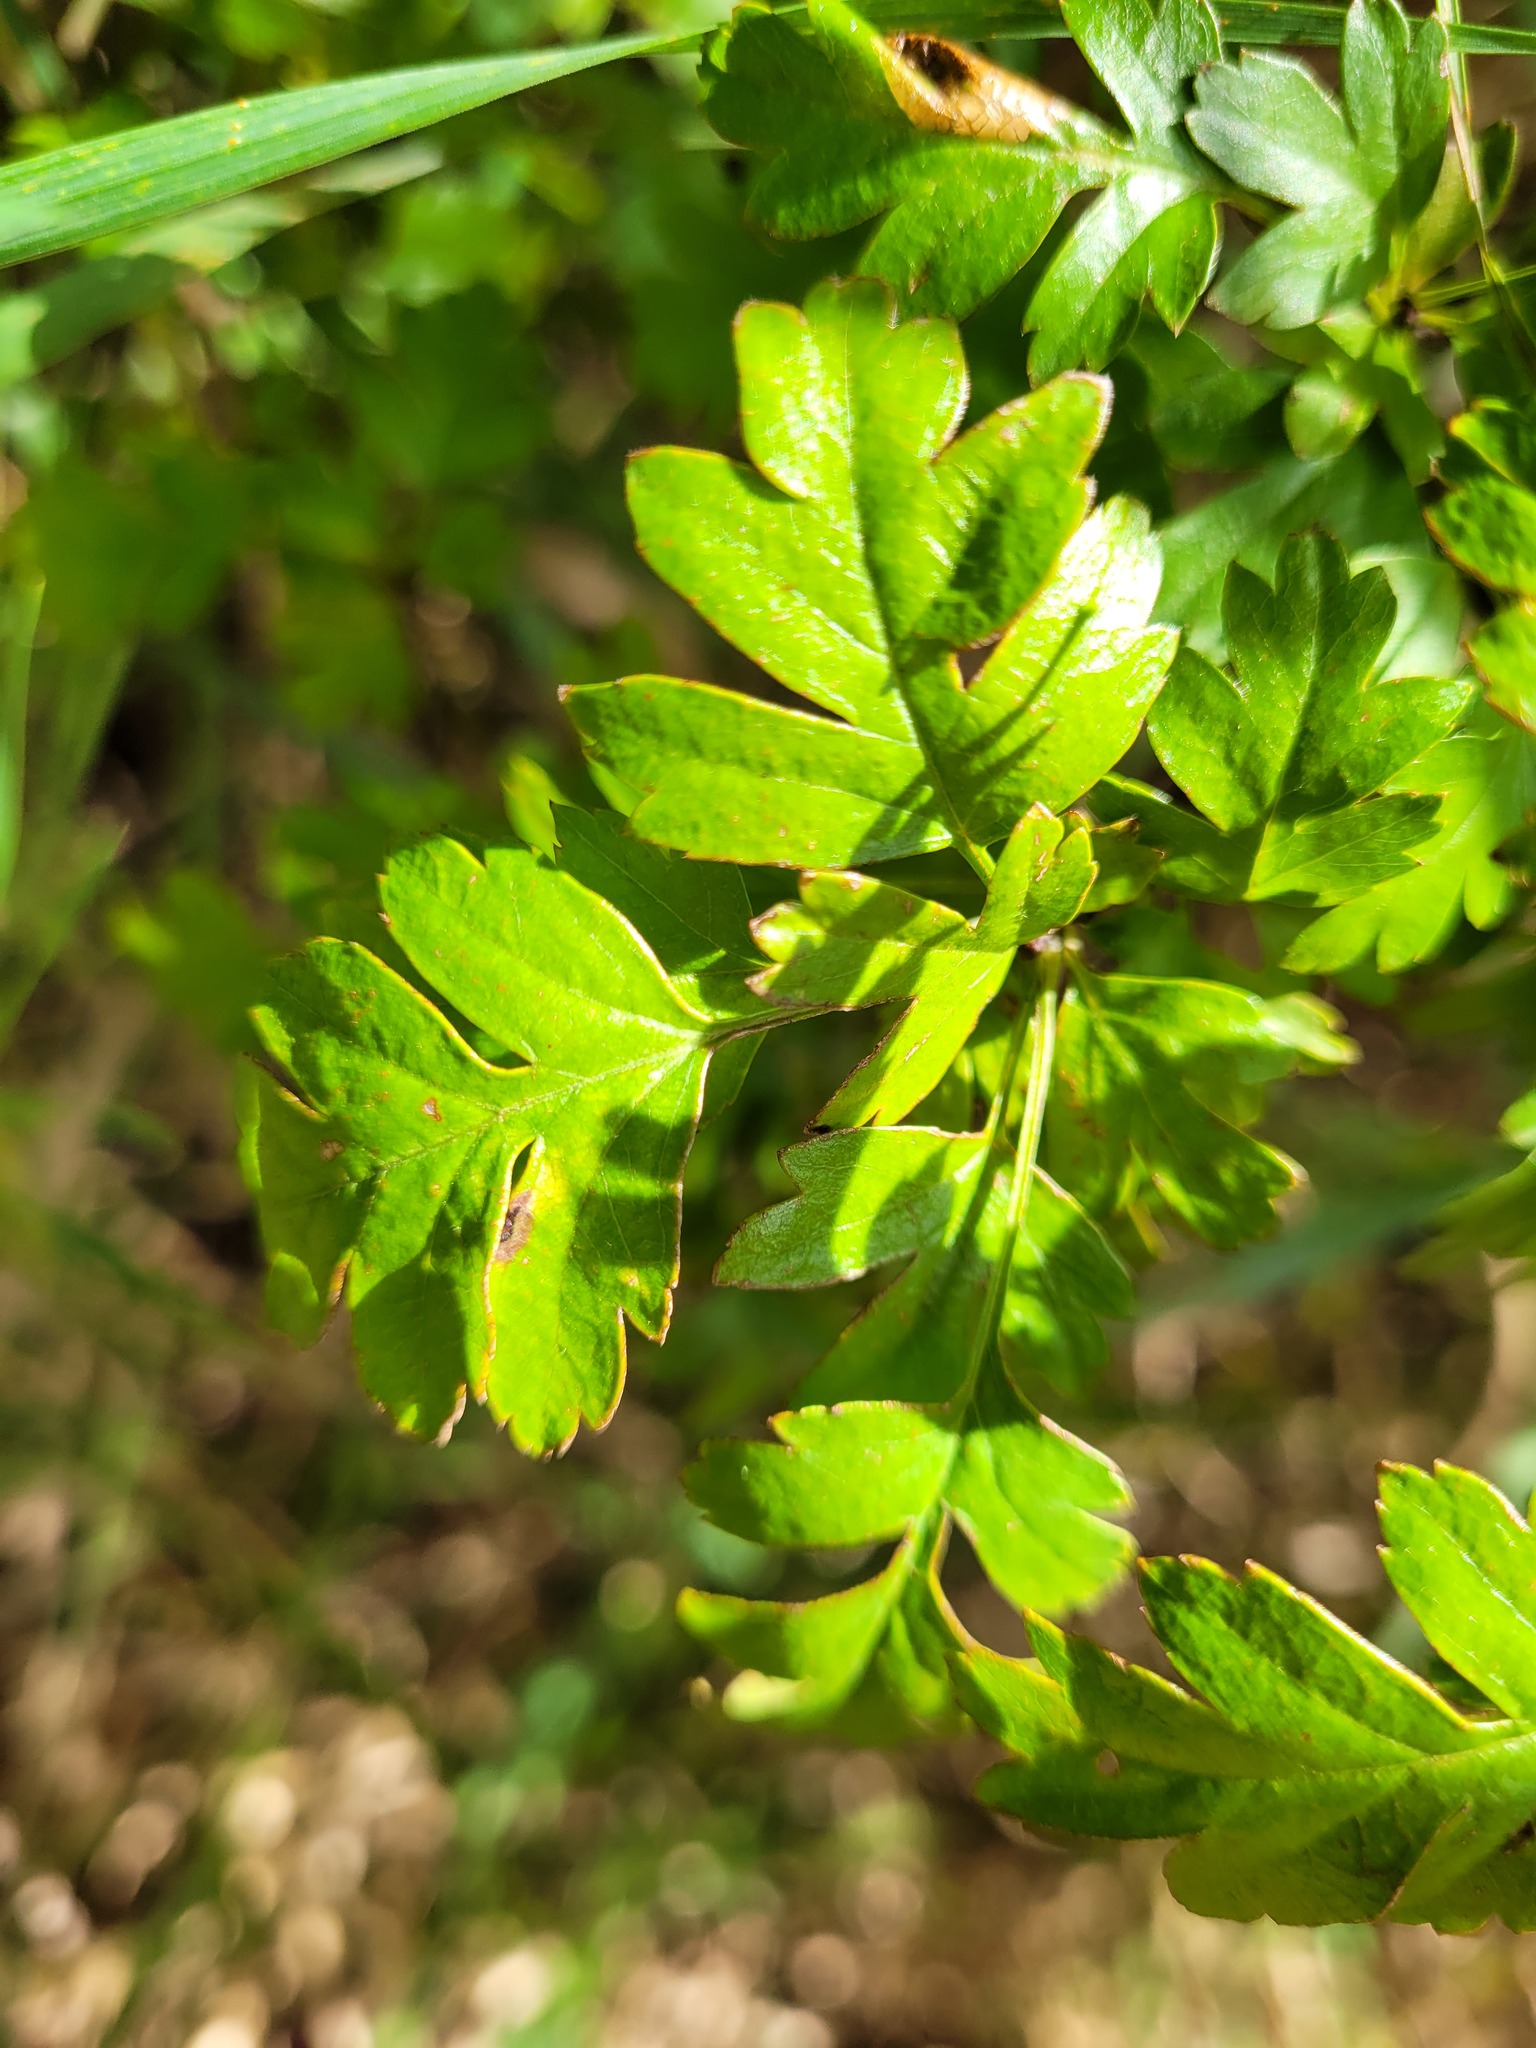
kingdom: Plantae
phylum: Tracheophyta
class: Magnoliopsida
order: Rosales
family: Rosaceae
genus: Crataegus
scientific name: Crataegus monogyna
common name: Hawthorn
